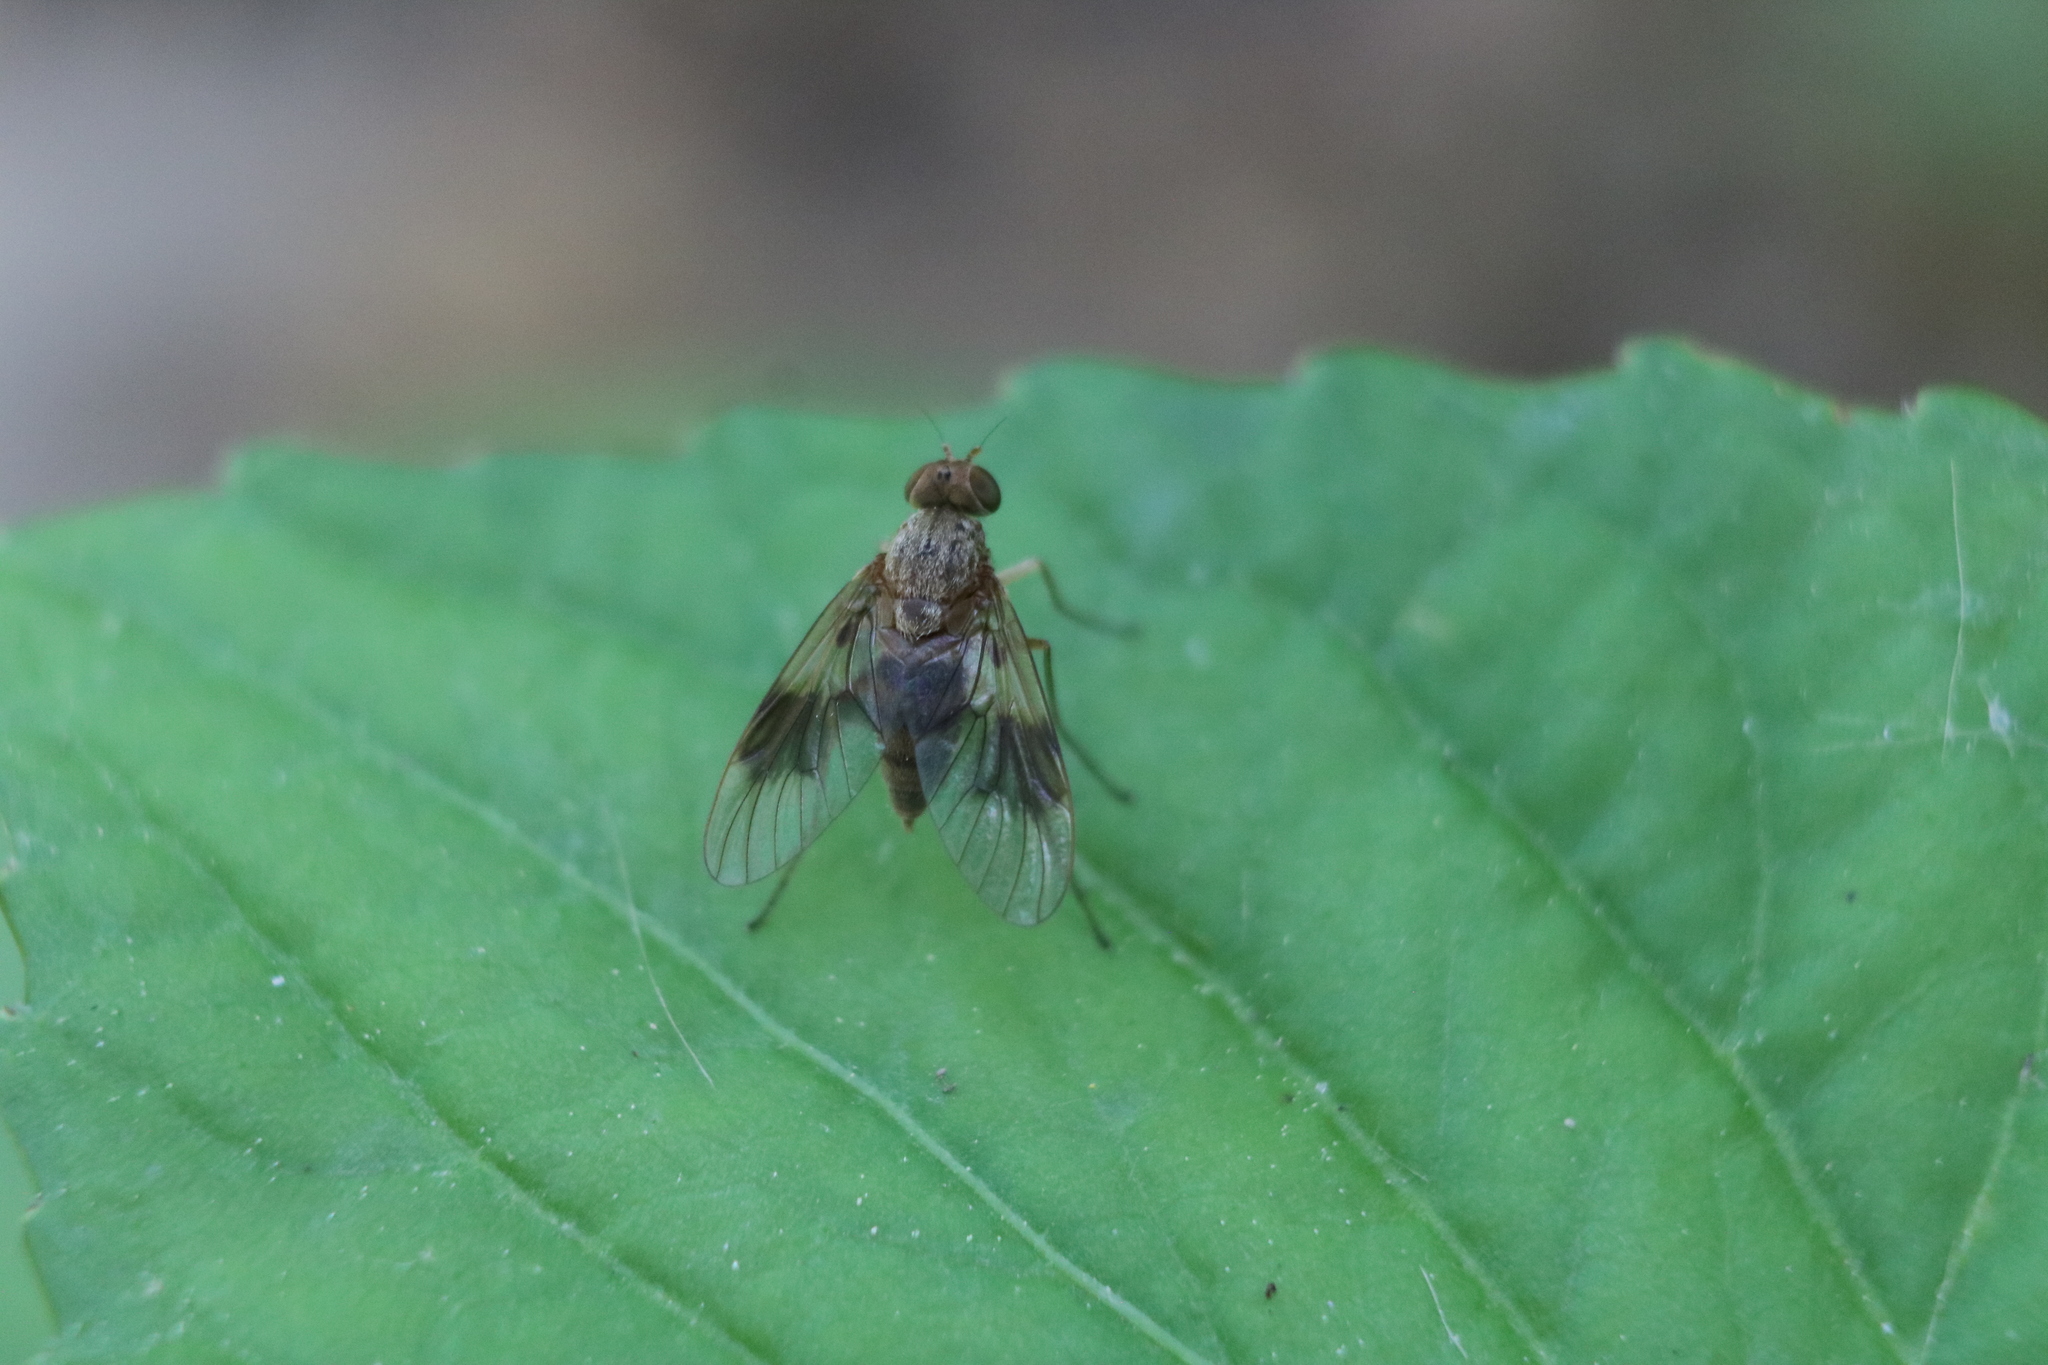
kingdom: Animalia
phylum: Arthropoda
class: Insecta
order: Diptera
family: Rhagionidae
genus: Chrysopilus
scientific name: Chrysopilus quadratus
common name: Quadrate snipe fly
